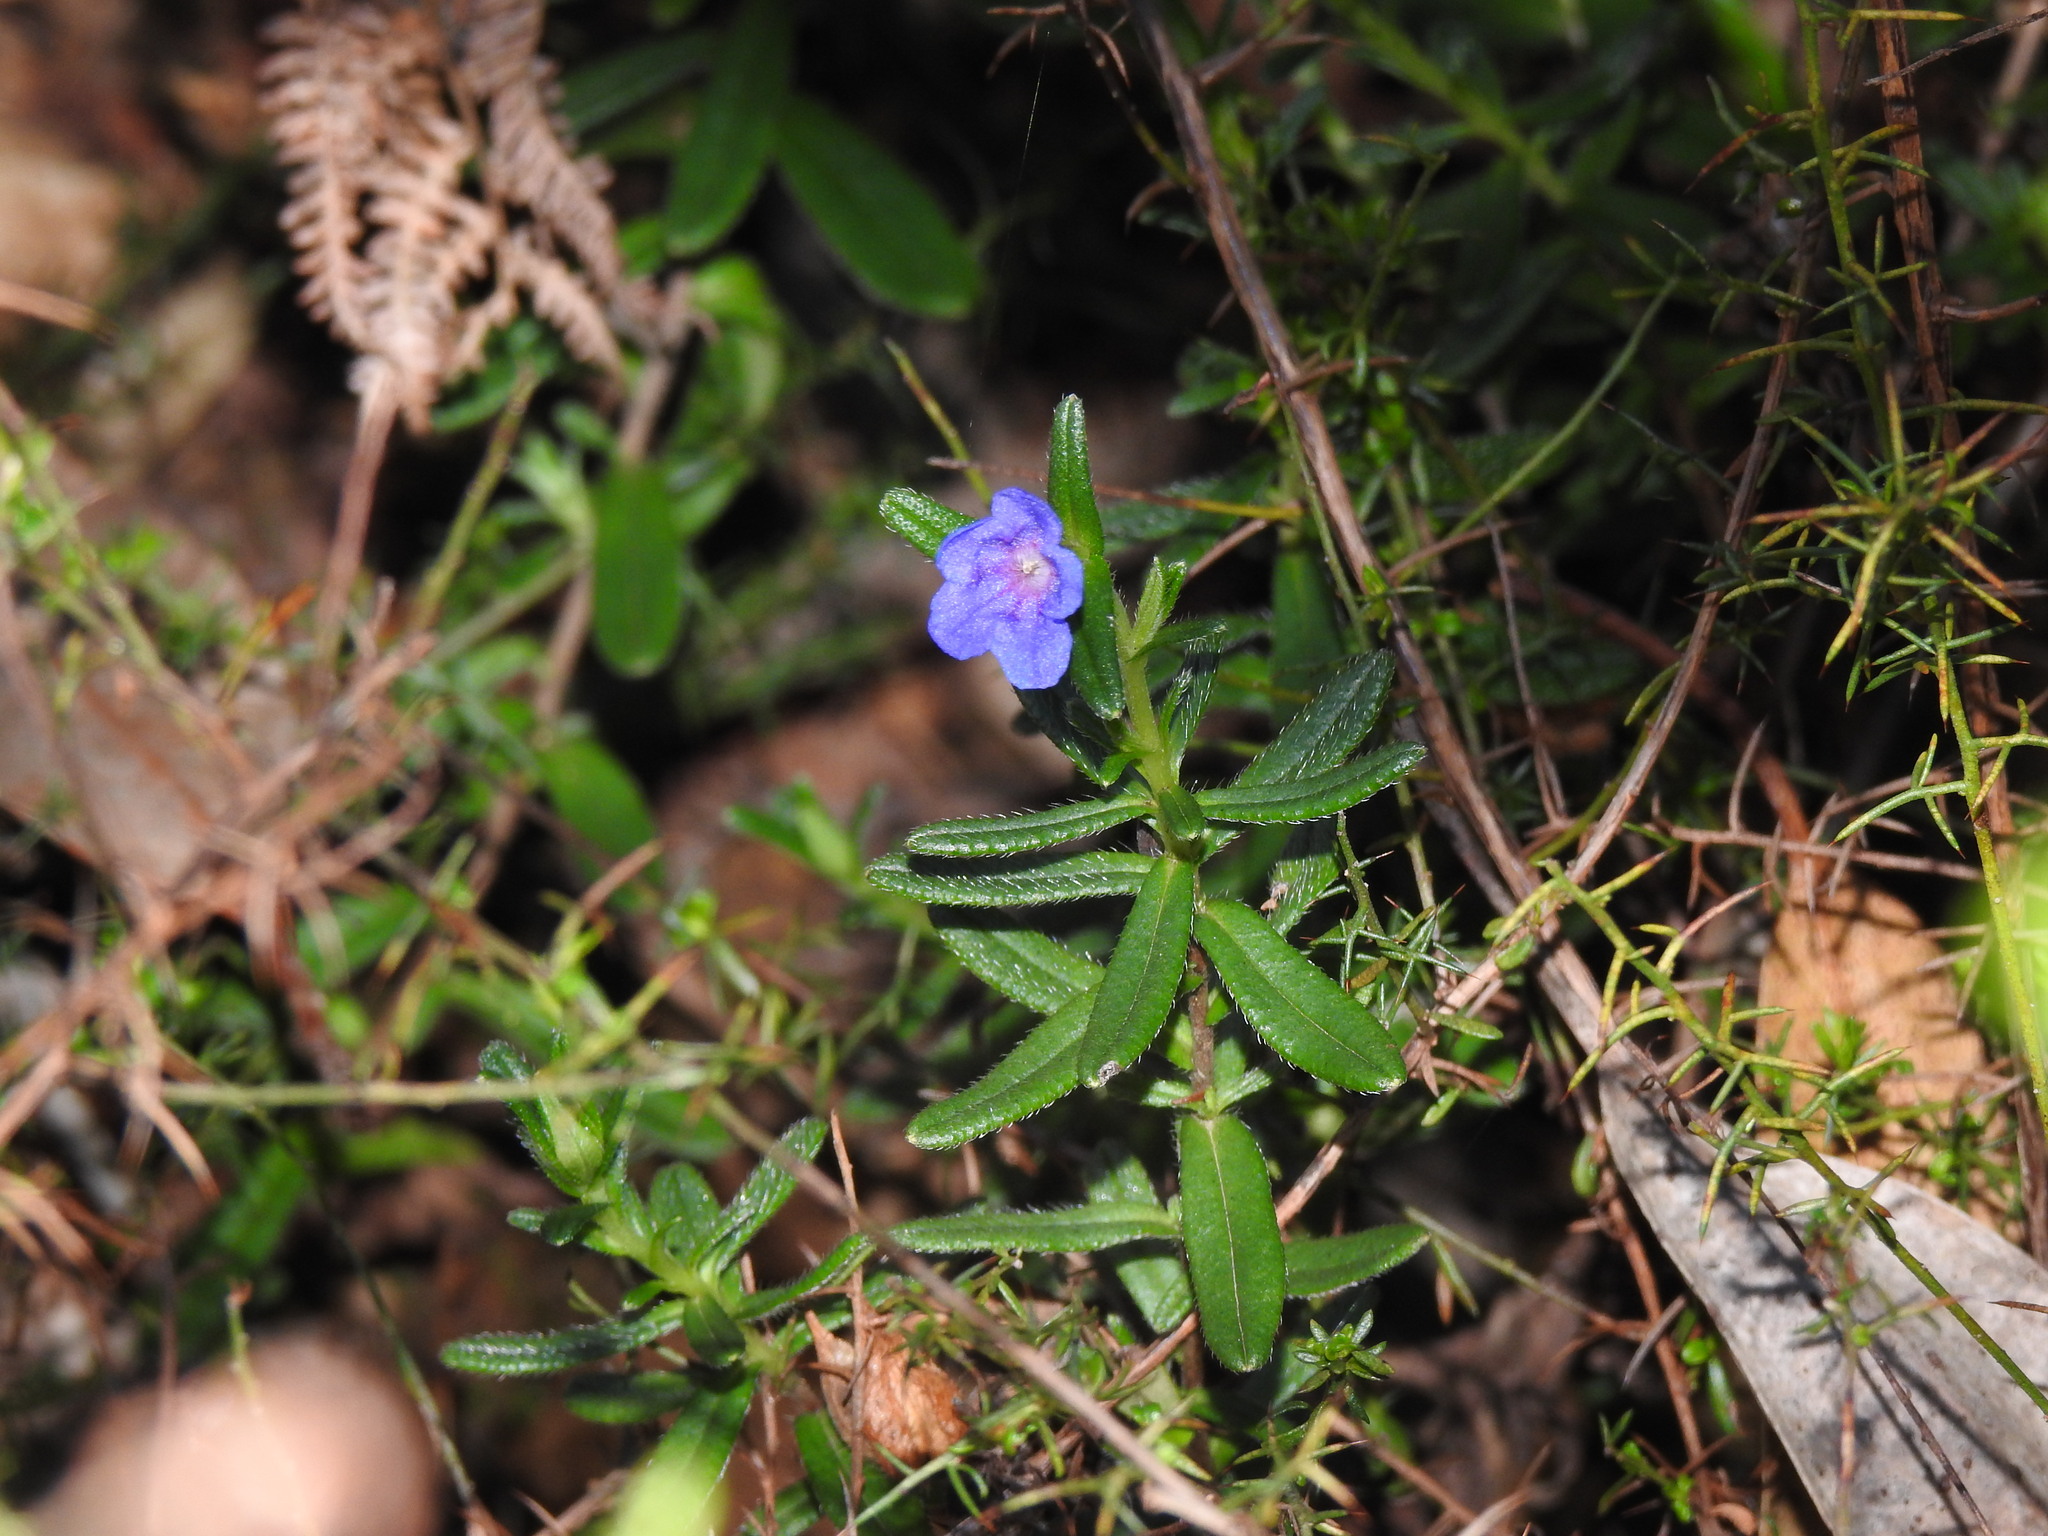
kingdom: Plantae
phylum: Tracheophyta
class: Magnoliopsida
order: Boraginales
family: Boraginaceae
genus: Glandora
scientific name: Glandora prostrata
